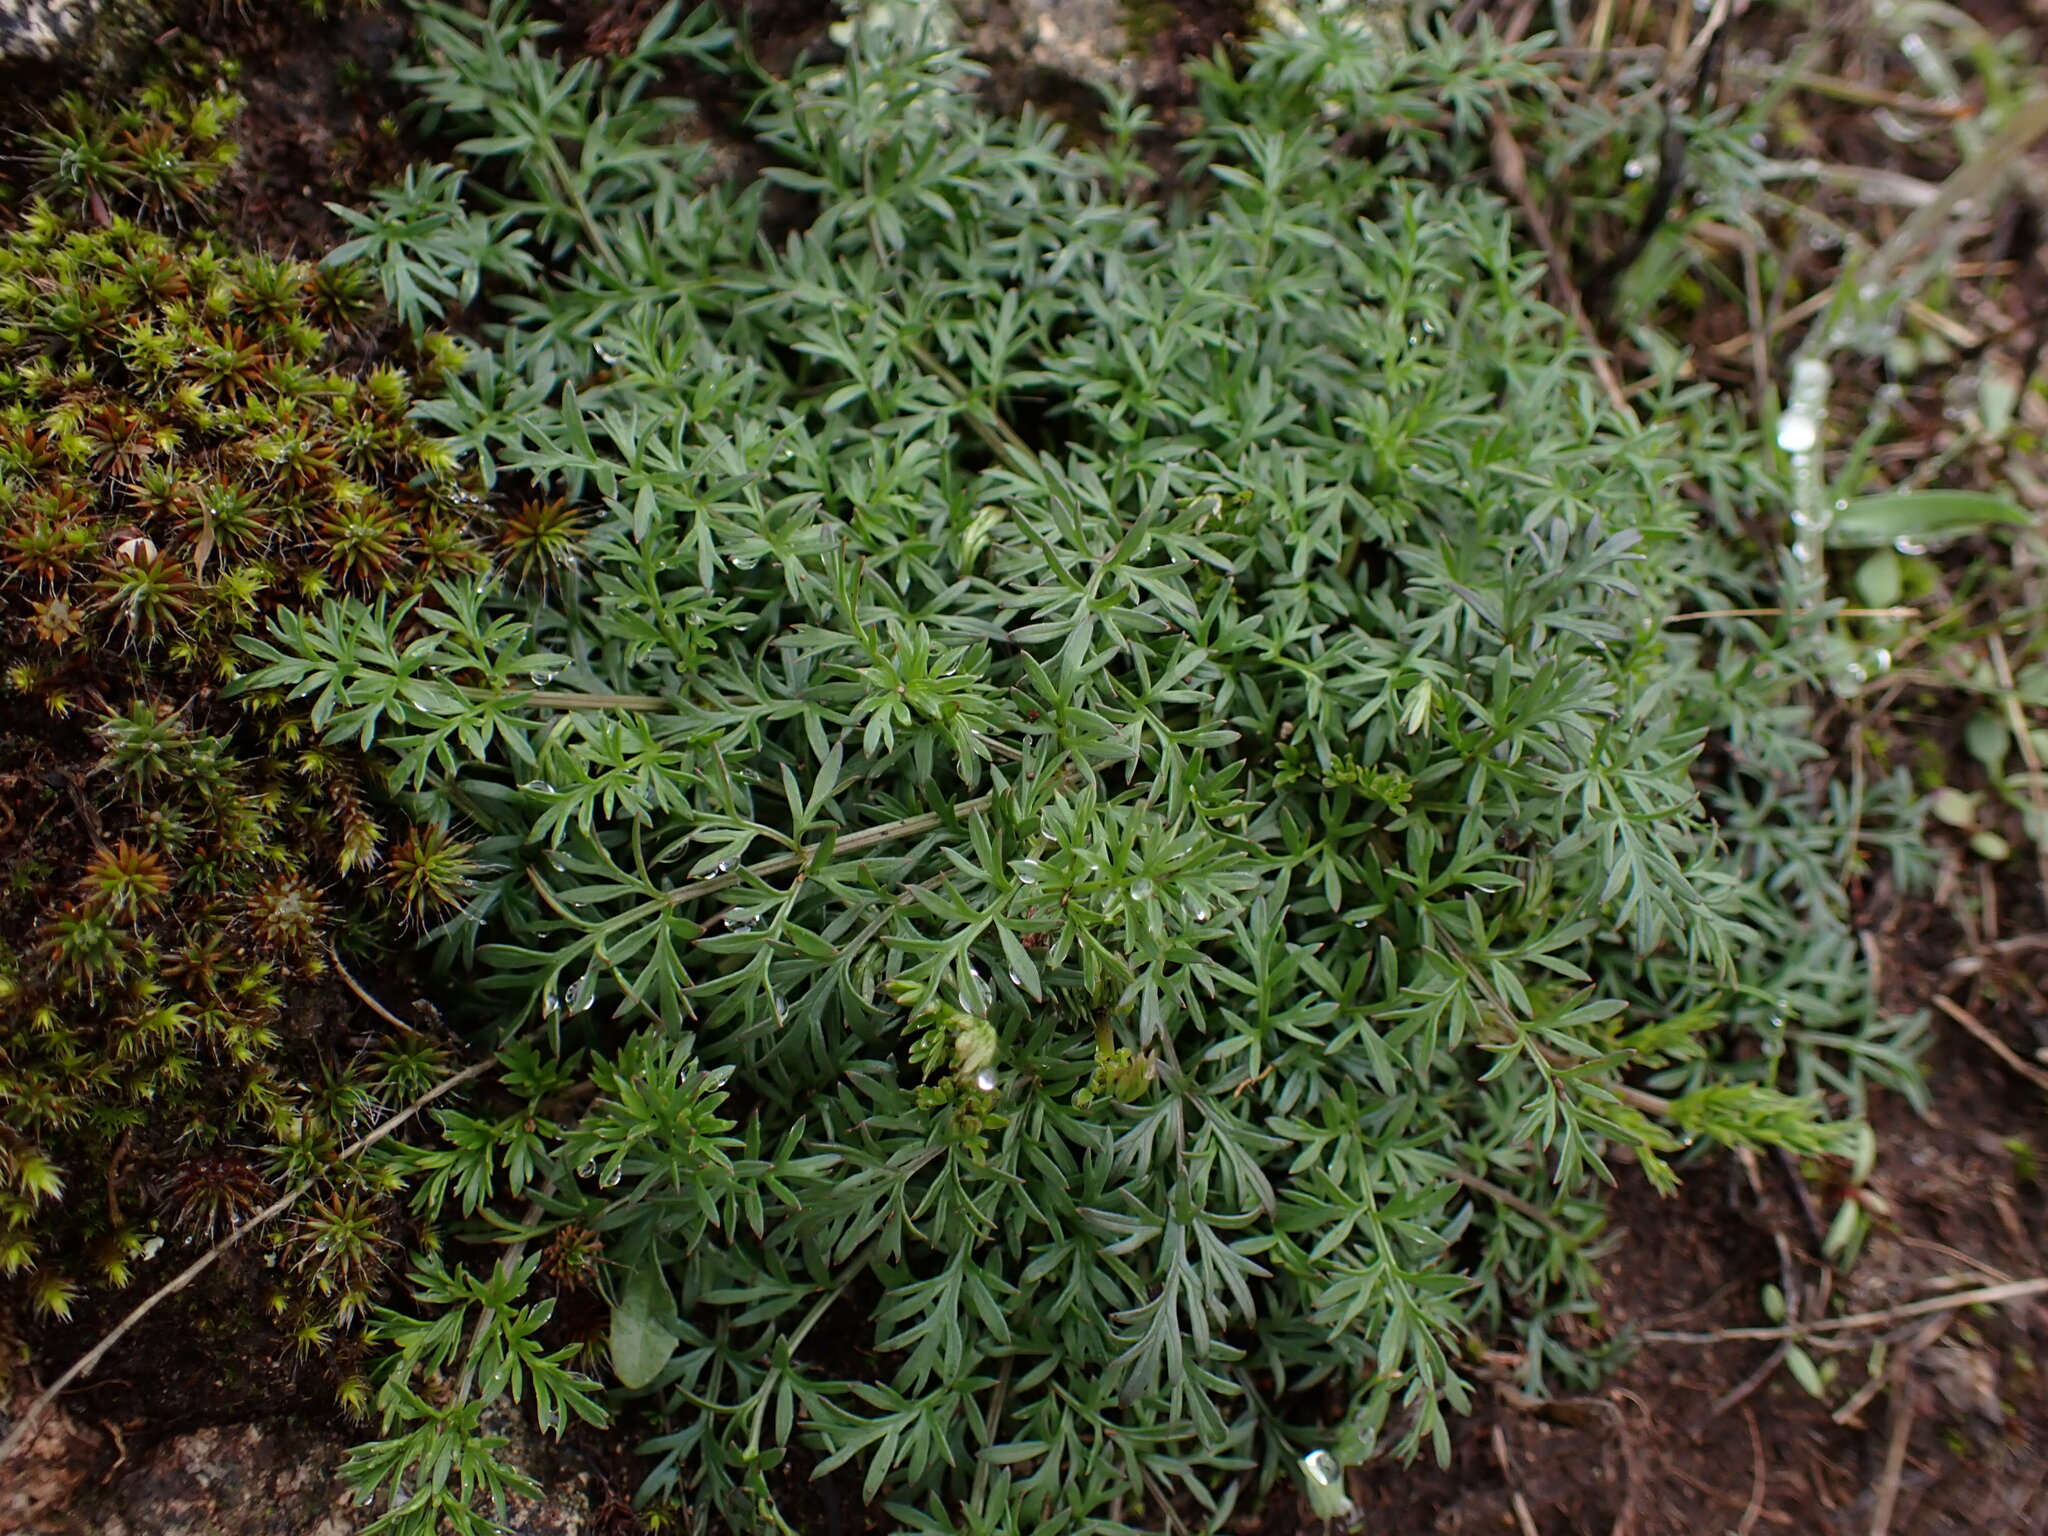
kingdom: Plantae
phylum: Tracheophyta
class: Magnoliopsida
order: Apiales
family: Apiaceae
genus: Lomatium
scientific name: Lomatium utriculatum
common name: Fine-leaf desert-parsley
